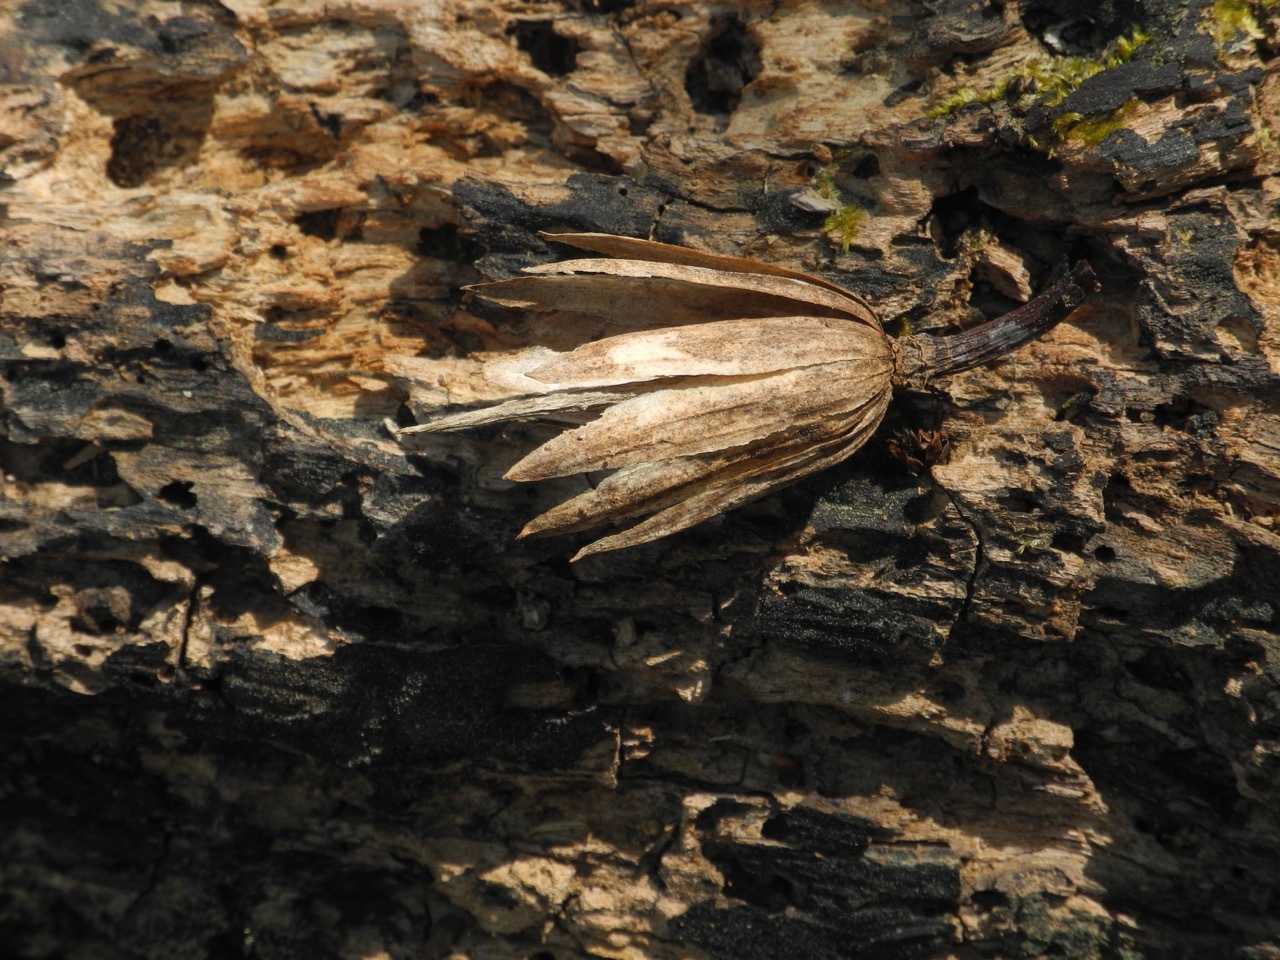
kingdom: Plantae
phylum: Tracheophyta
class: Magnoliopsida
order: Magnoliales
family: Magnoliaceae
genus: Liriodendron
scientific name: Liriodendron tulipifera
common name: Tulip tree
